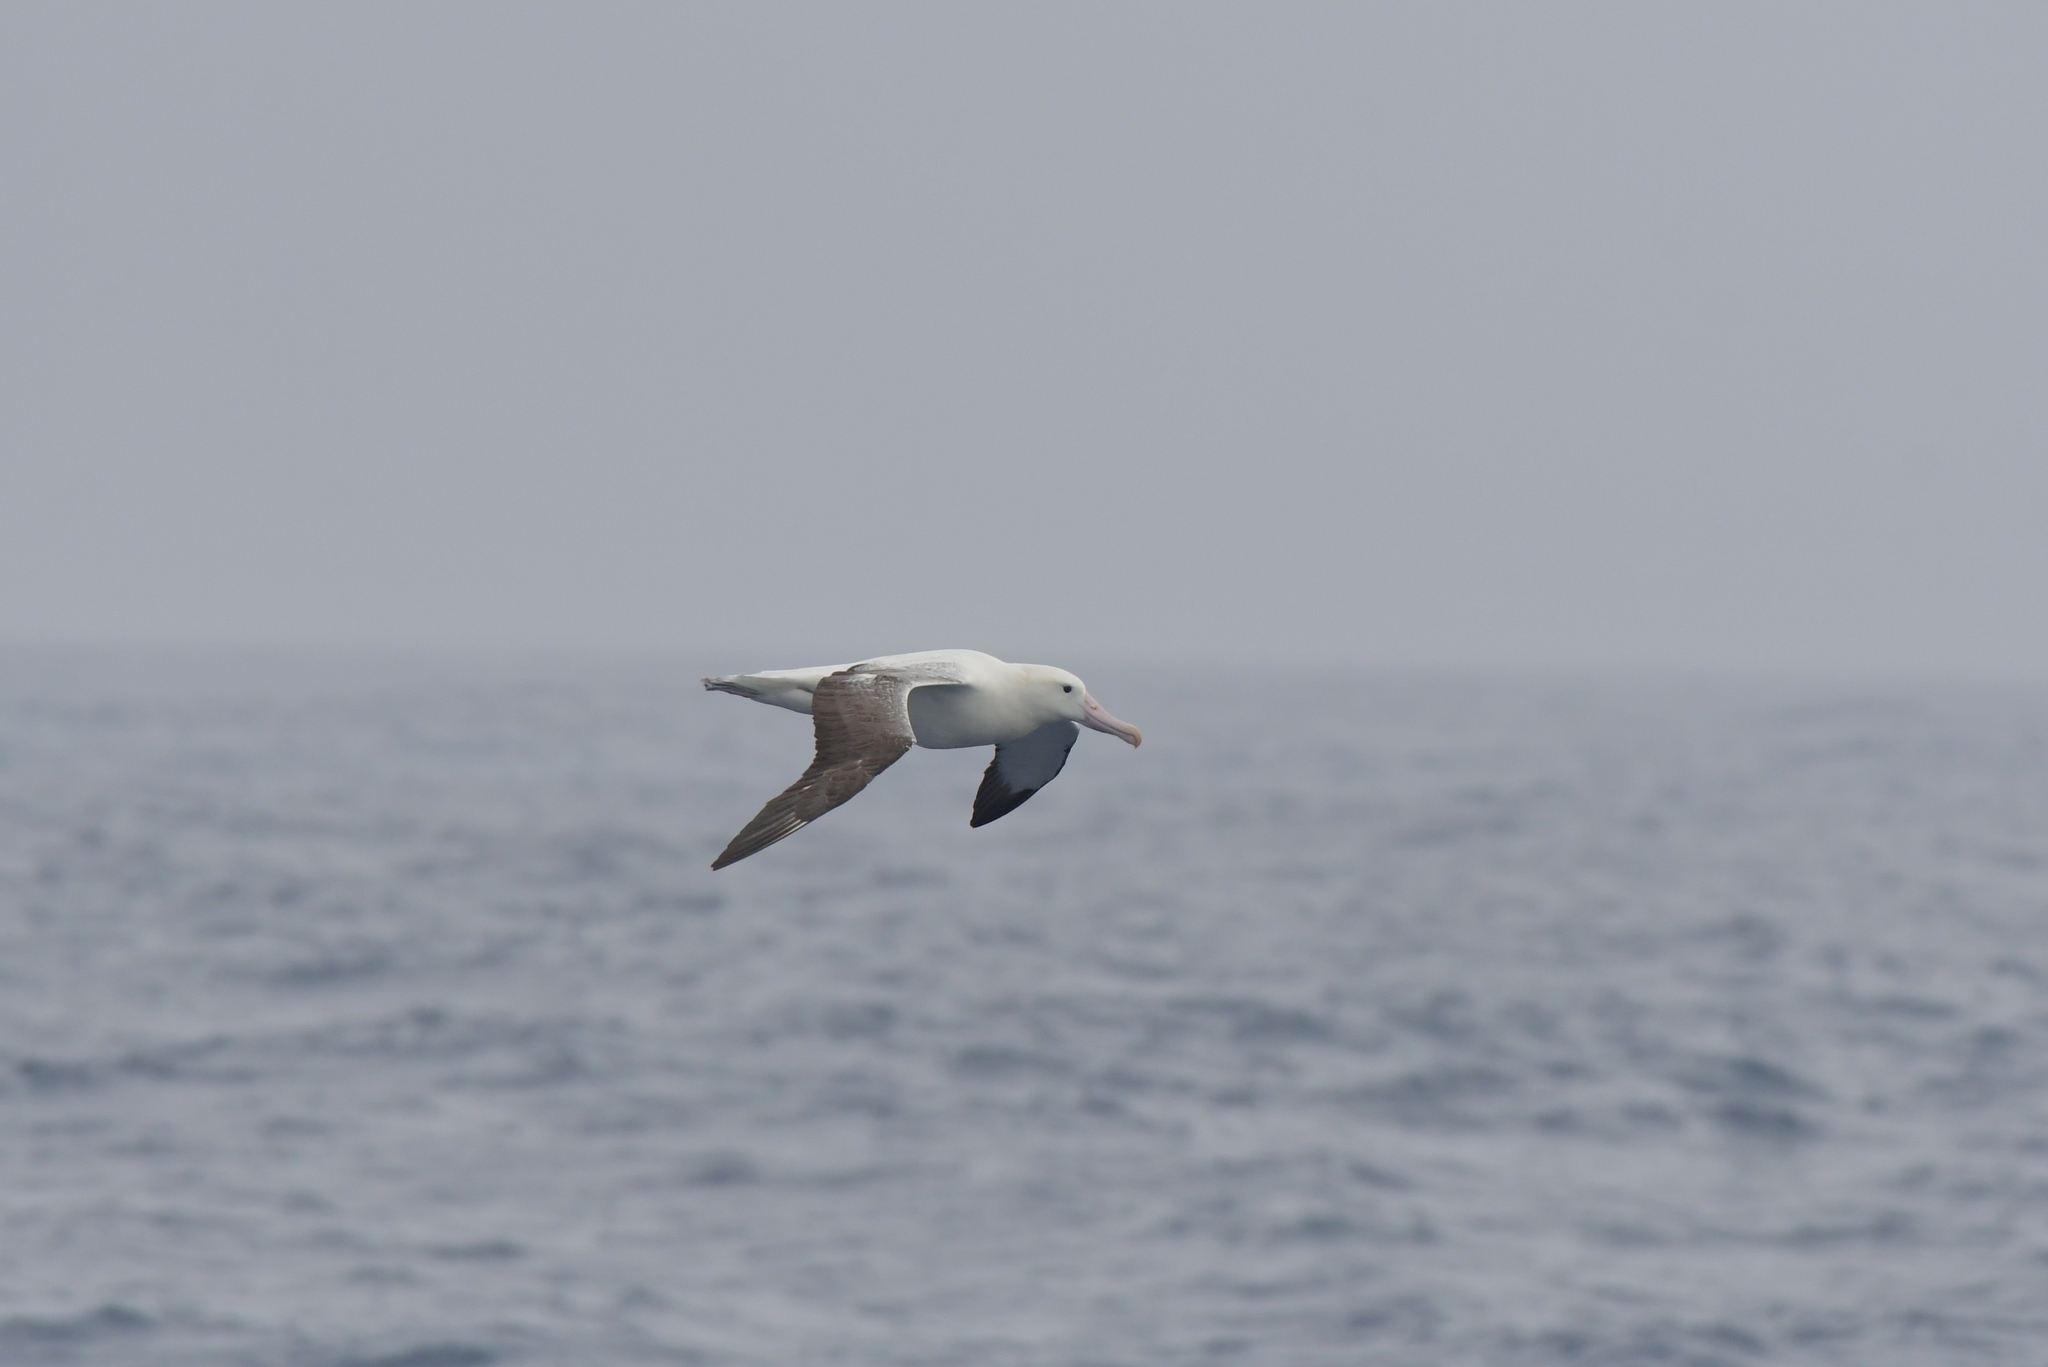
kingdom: Animalia
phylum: Chordata
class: Aves
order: Procellariiformes
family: Diomedeidae
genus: Diomedea
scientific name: Diomedea epomophora
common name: Southern royal albatross
